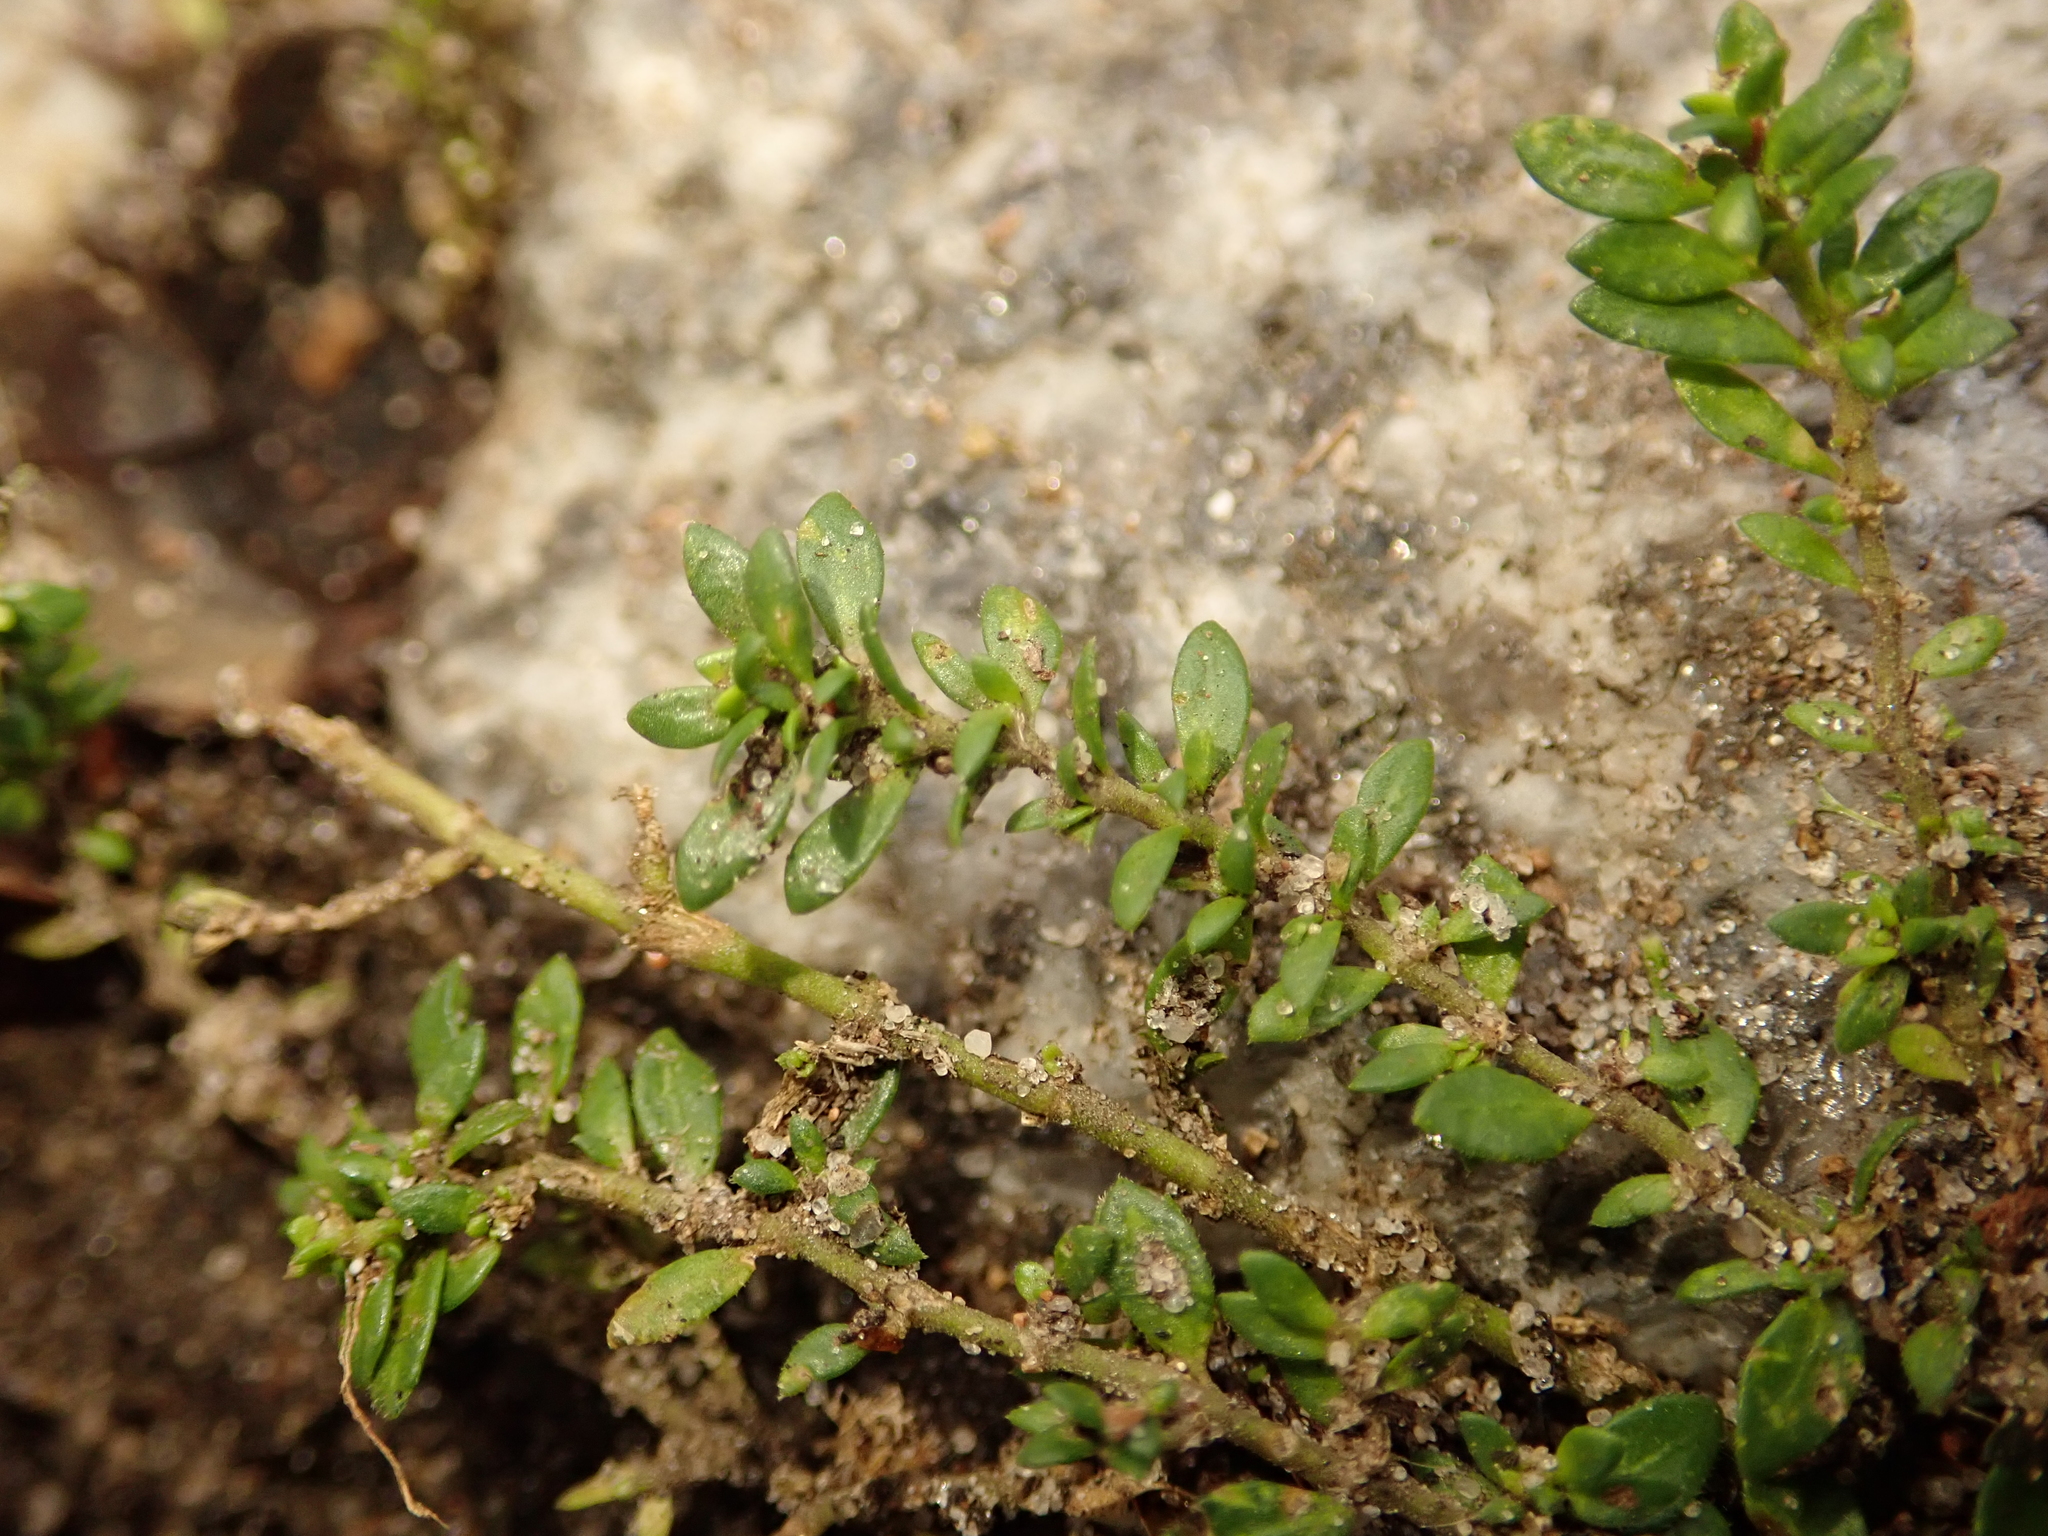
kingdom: Plantae
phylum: Tracheophyta
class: Magnoliopsida
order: Caryophyllales
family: Caryophyllaceae
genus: Herniaria
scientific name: Herniaria glabra
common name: Smooth rupturewort
